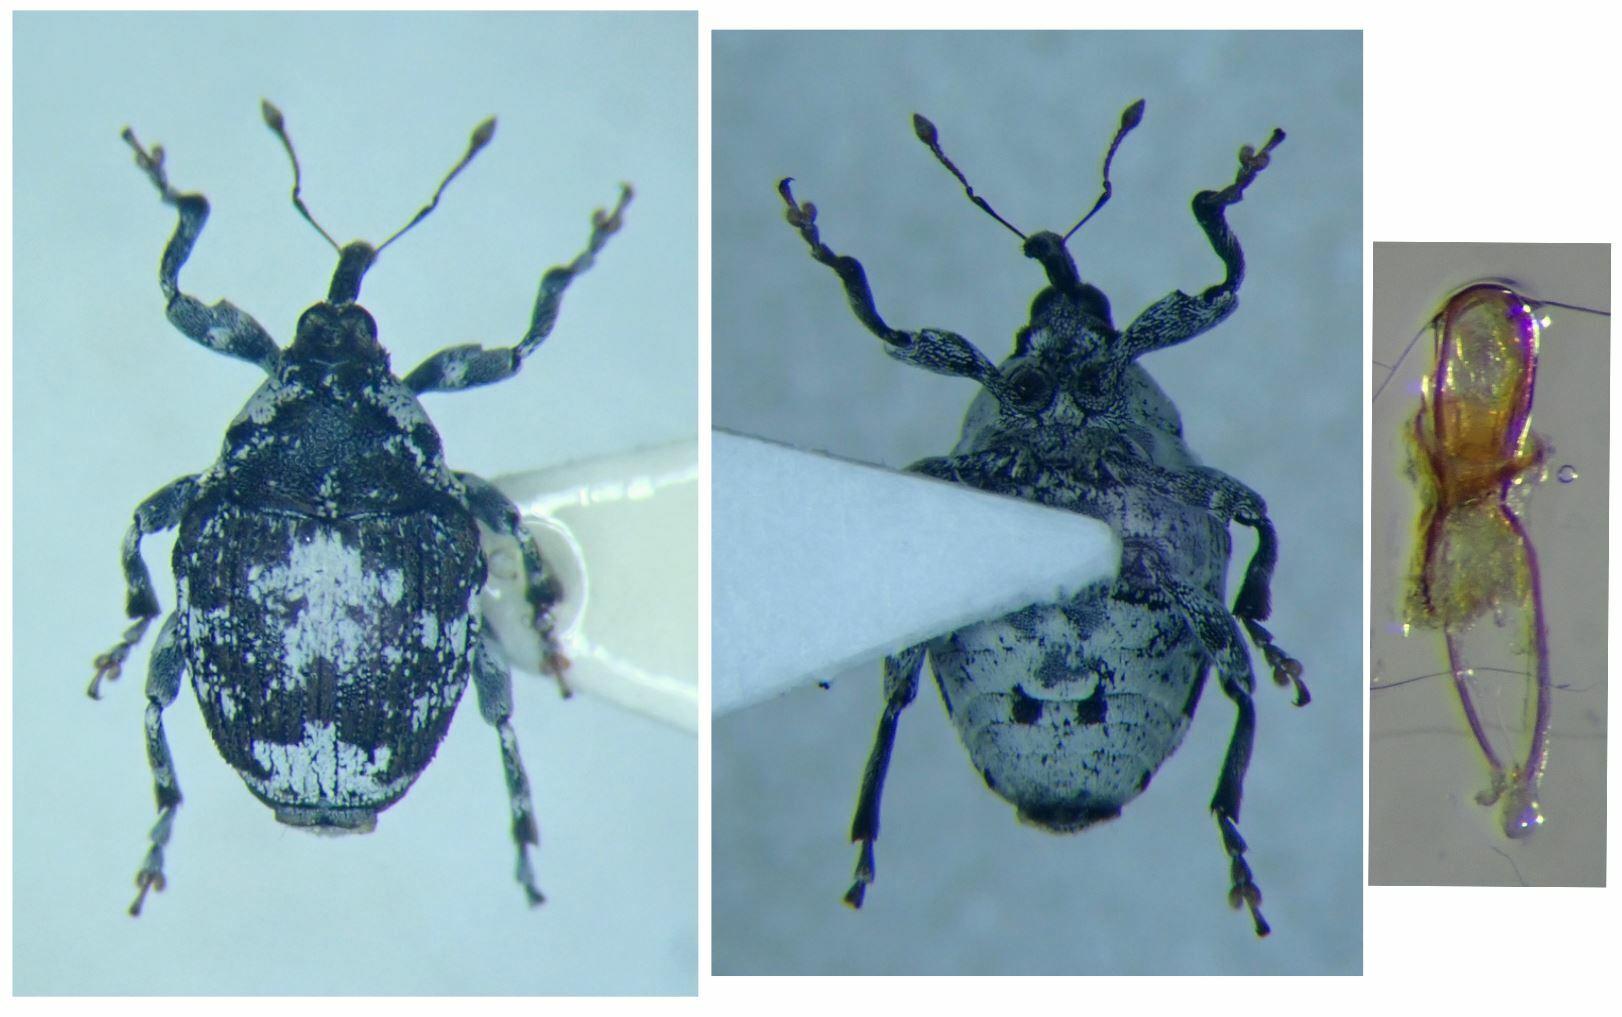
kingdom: Animalia
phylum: Arthropoda
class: Insecta
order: Coleoptera
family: Curculionidae
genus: Ceuthorrhynchus
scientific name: Ceuthorrhynchus larvatus
